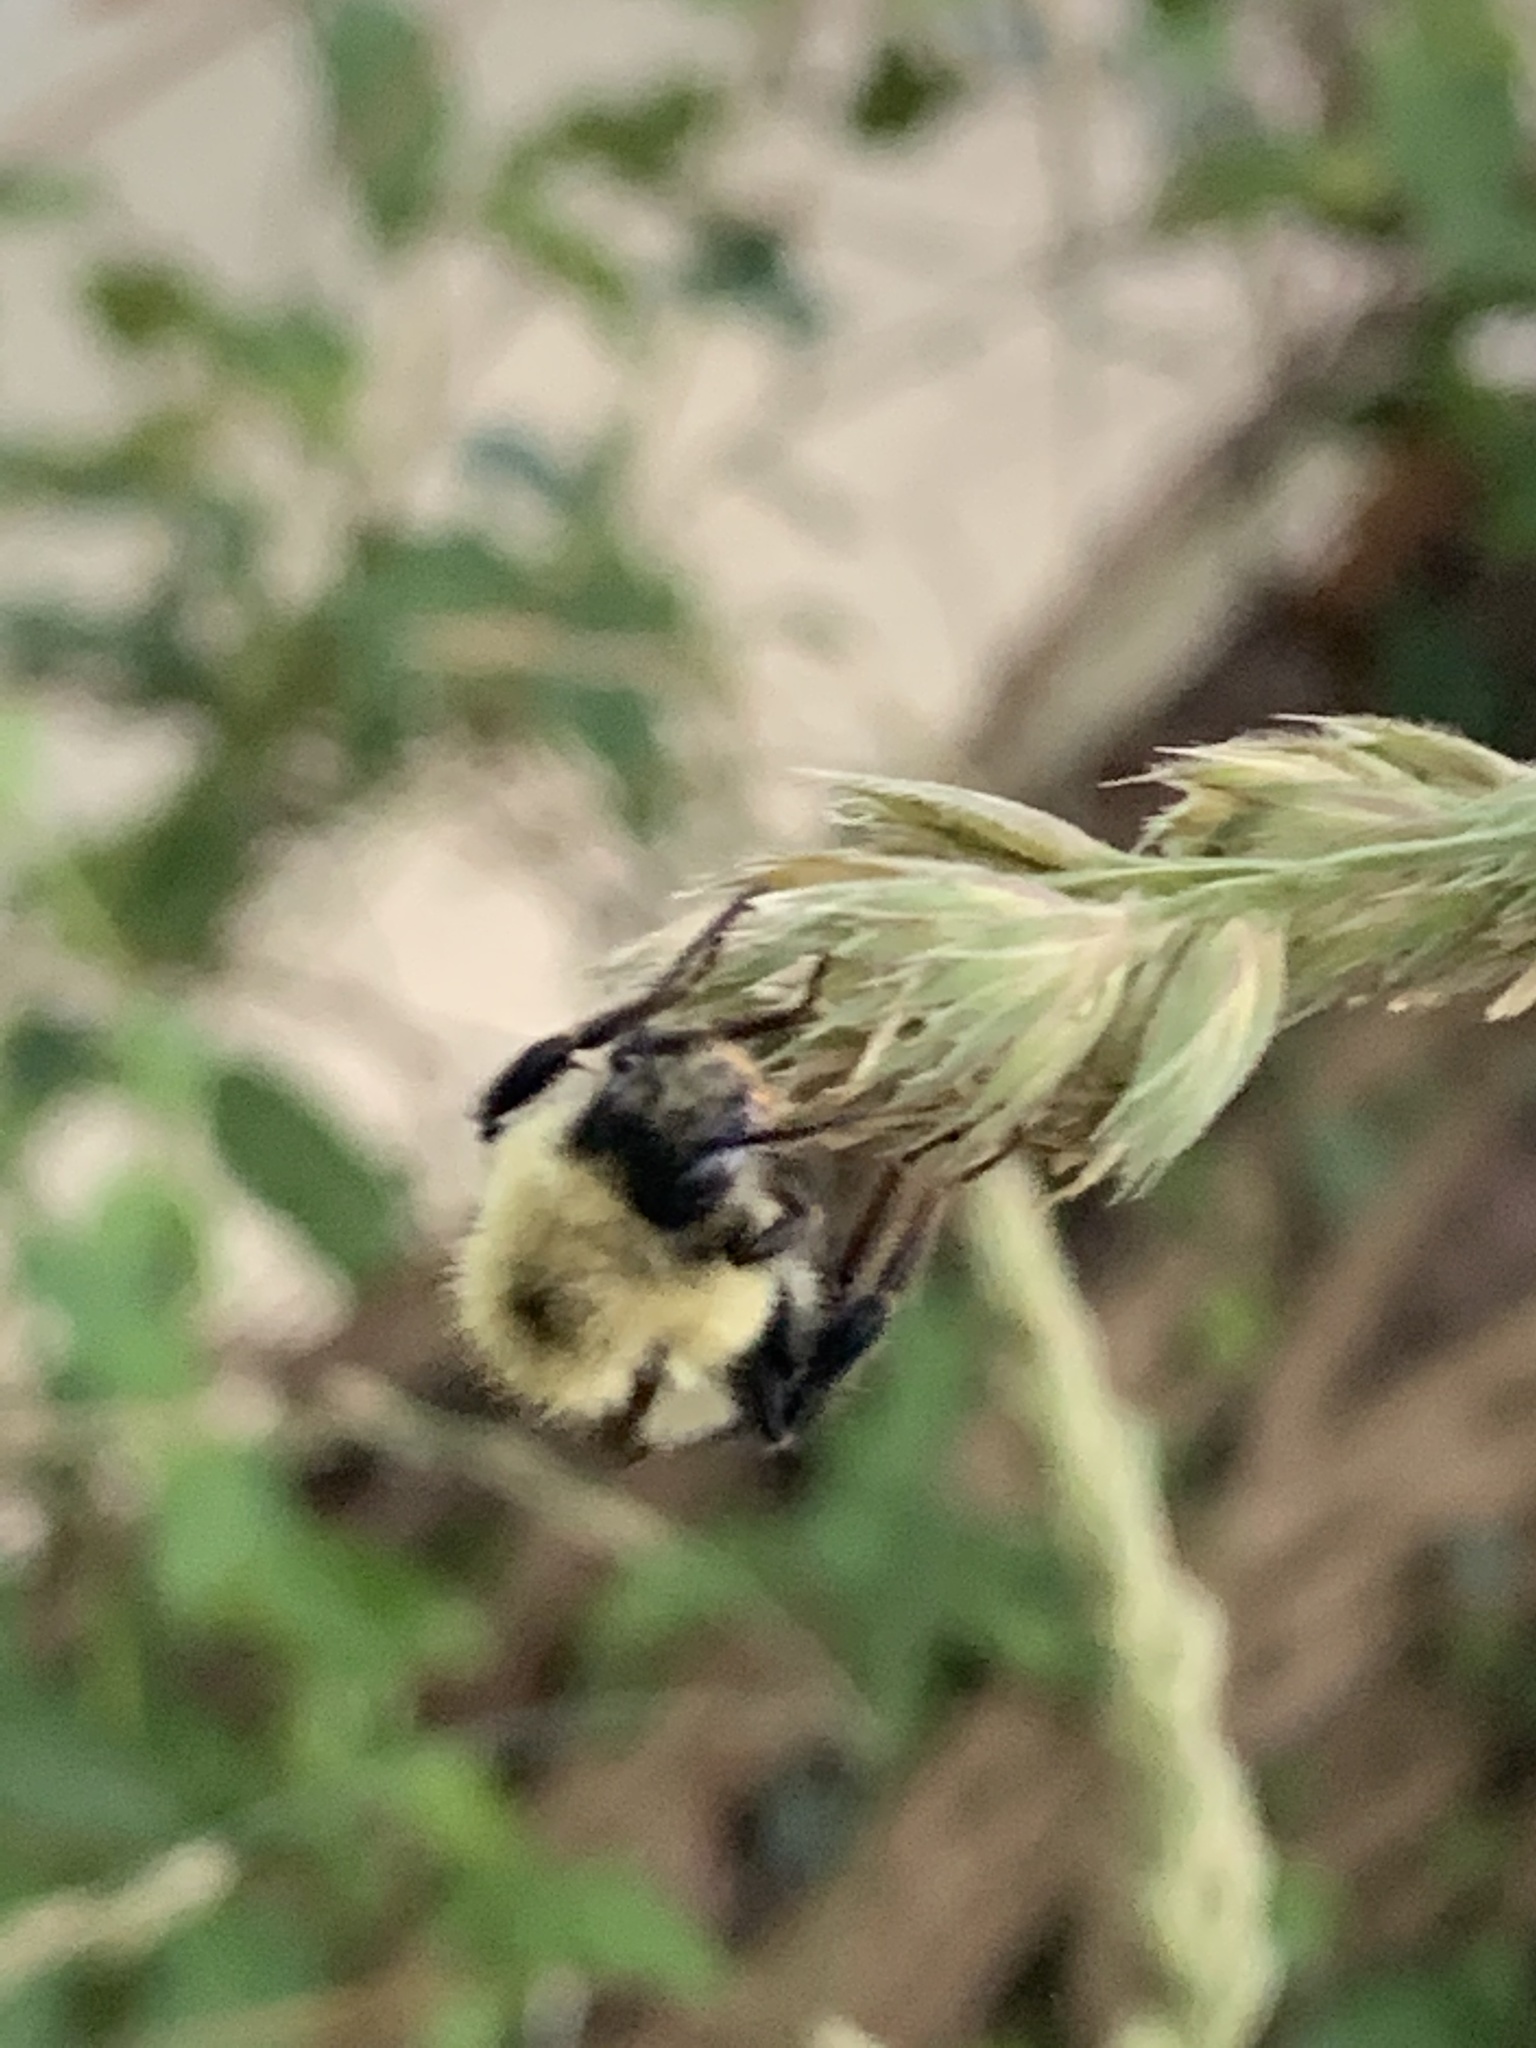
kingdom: Animalia
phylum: Arthropoda
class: Insecta
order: Hymenoptera
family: Apidae
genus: Pyrobombus
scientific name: Pyrobombus
